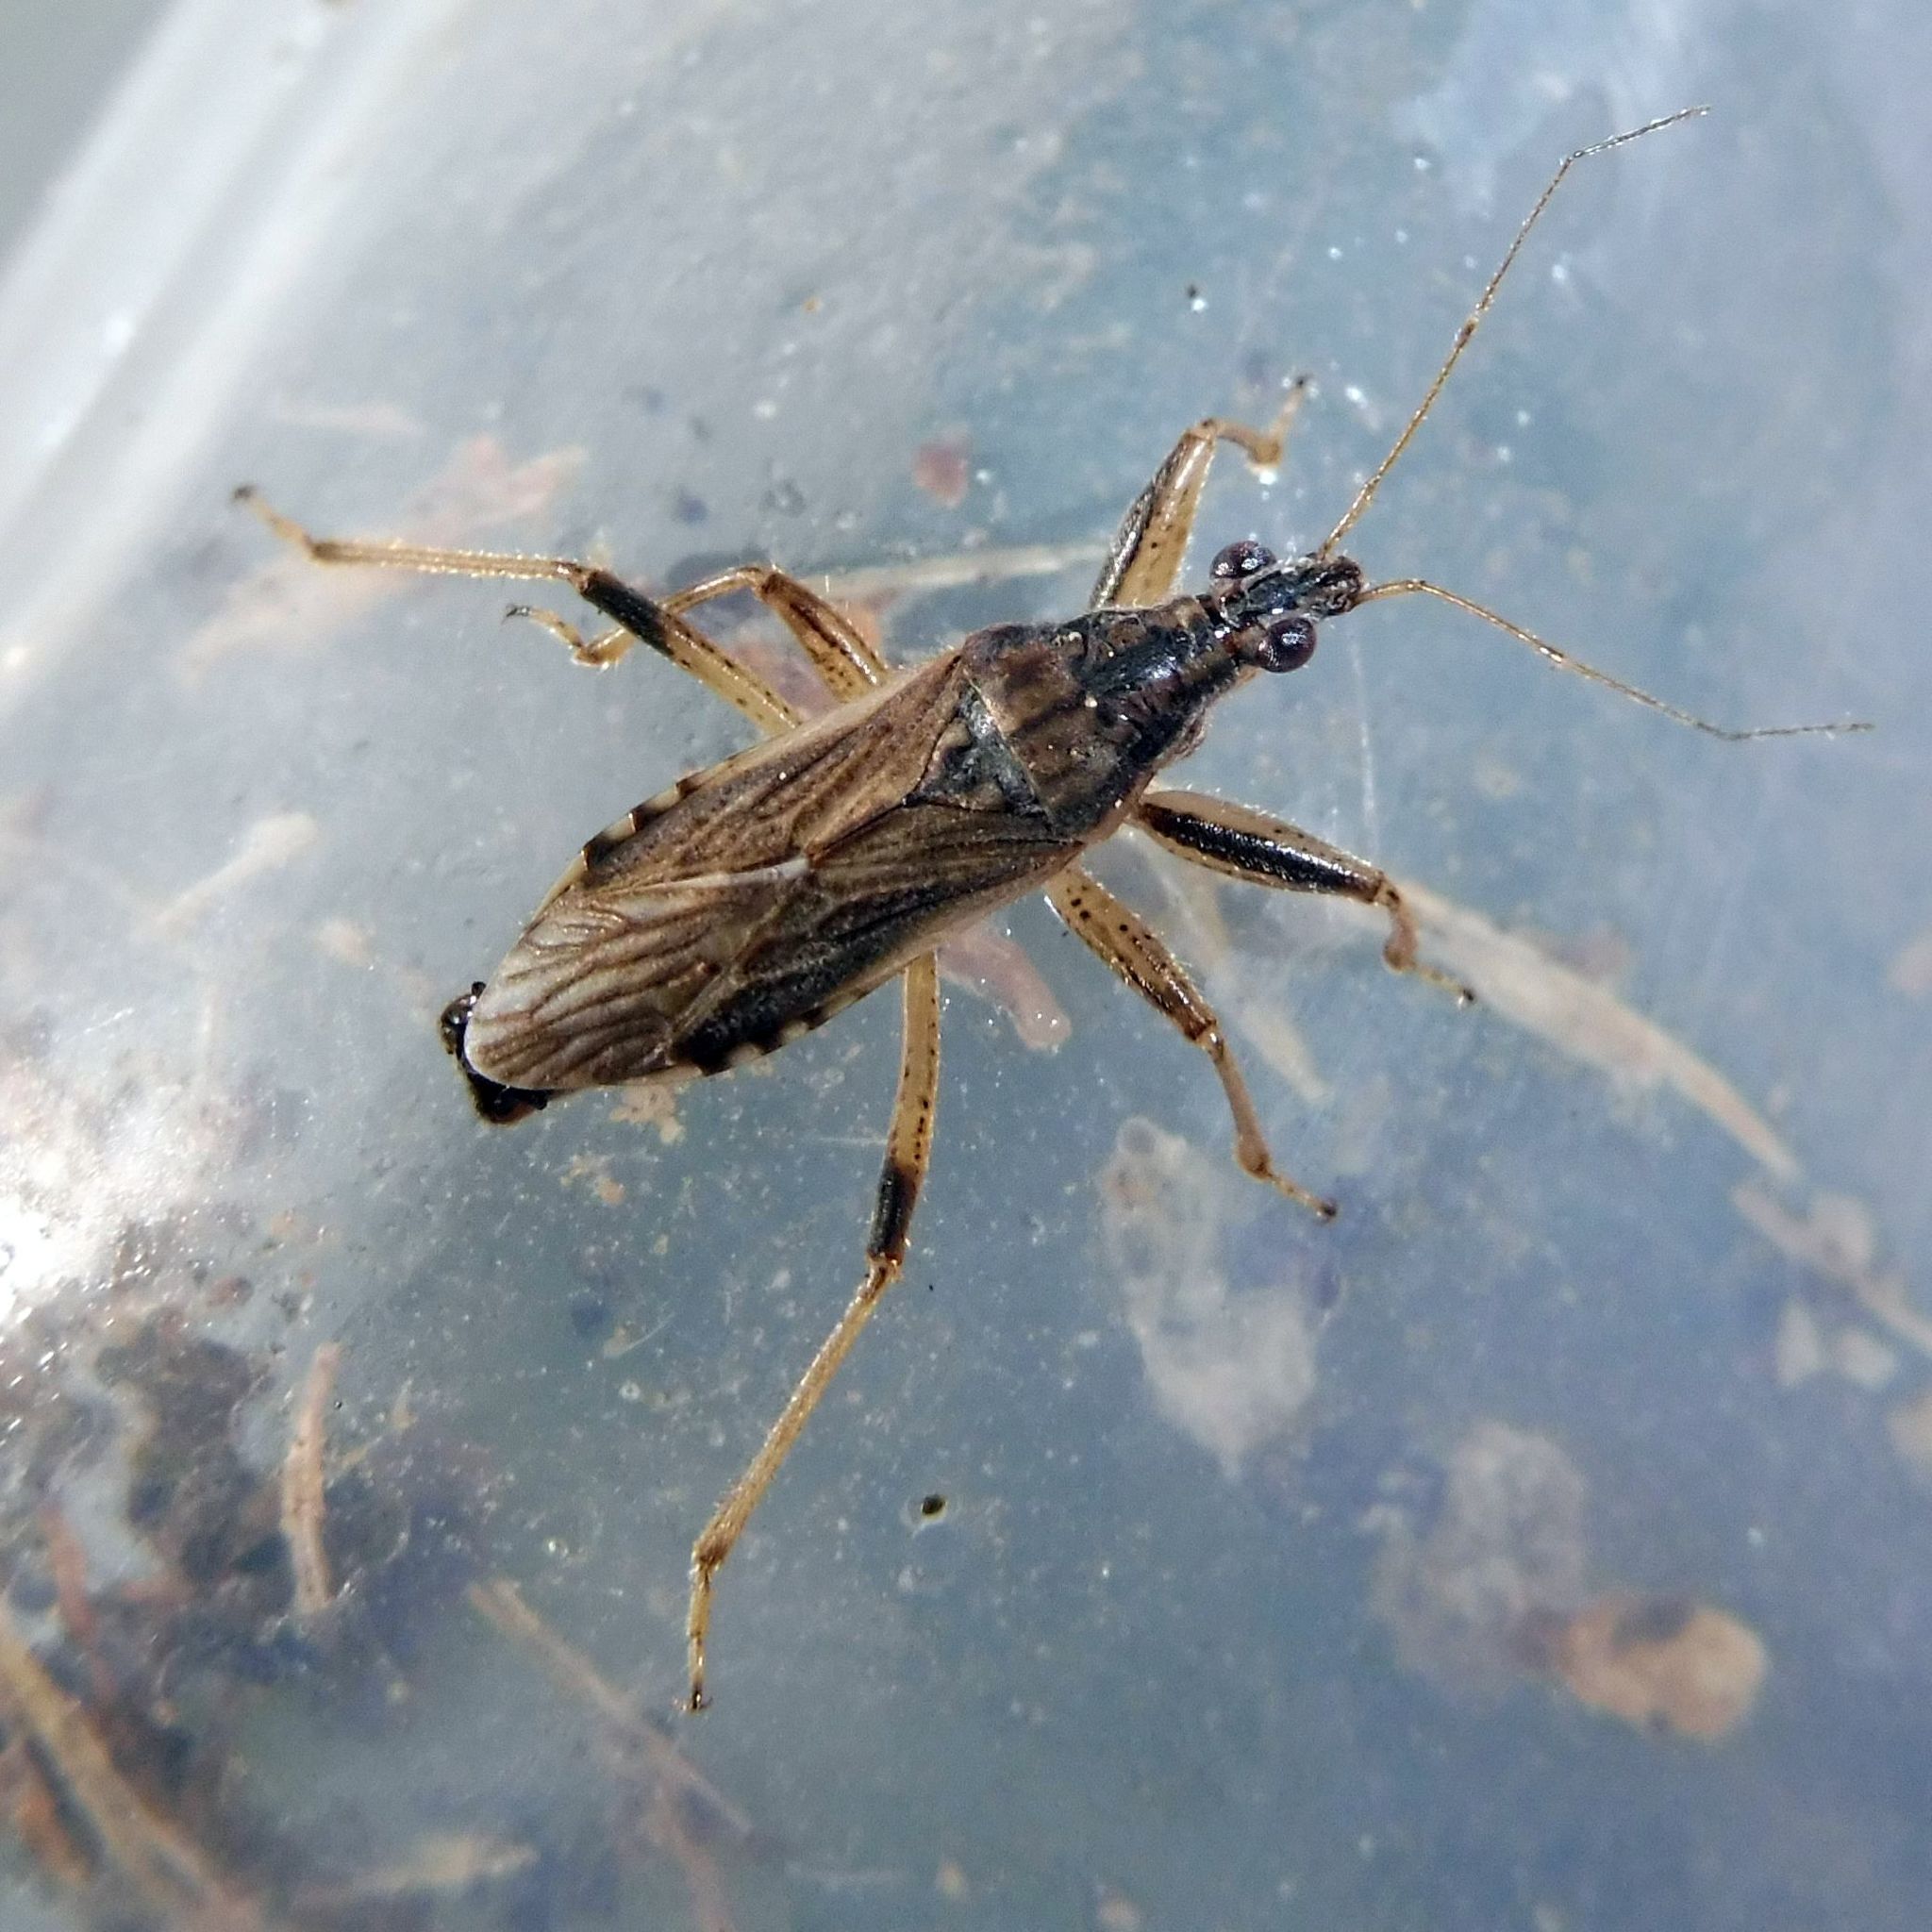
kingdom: Animalia
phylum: Arthropoda
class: Insecta
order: Hemiptera
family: Nabidae
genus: Himacerus
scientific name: Himacerus major
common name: Damsel bug
